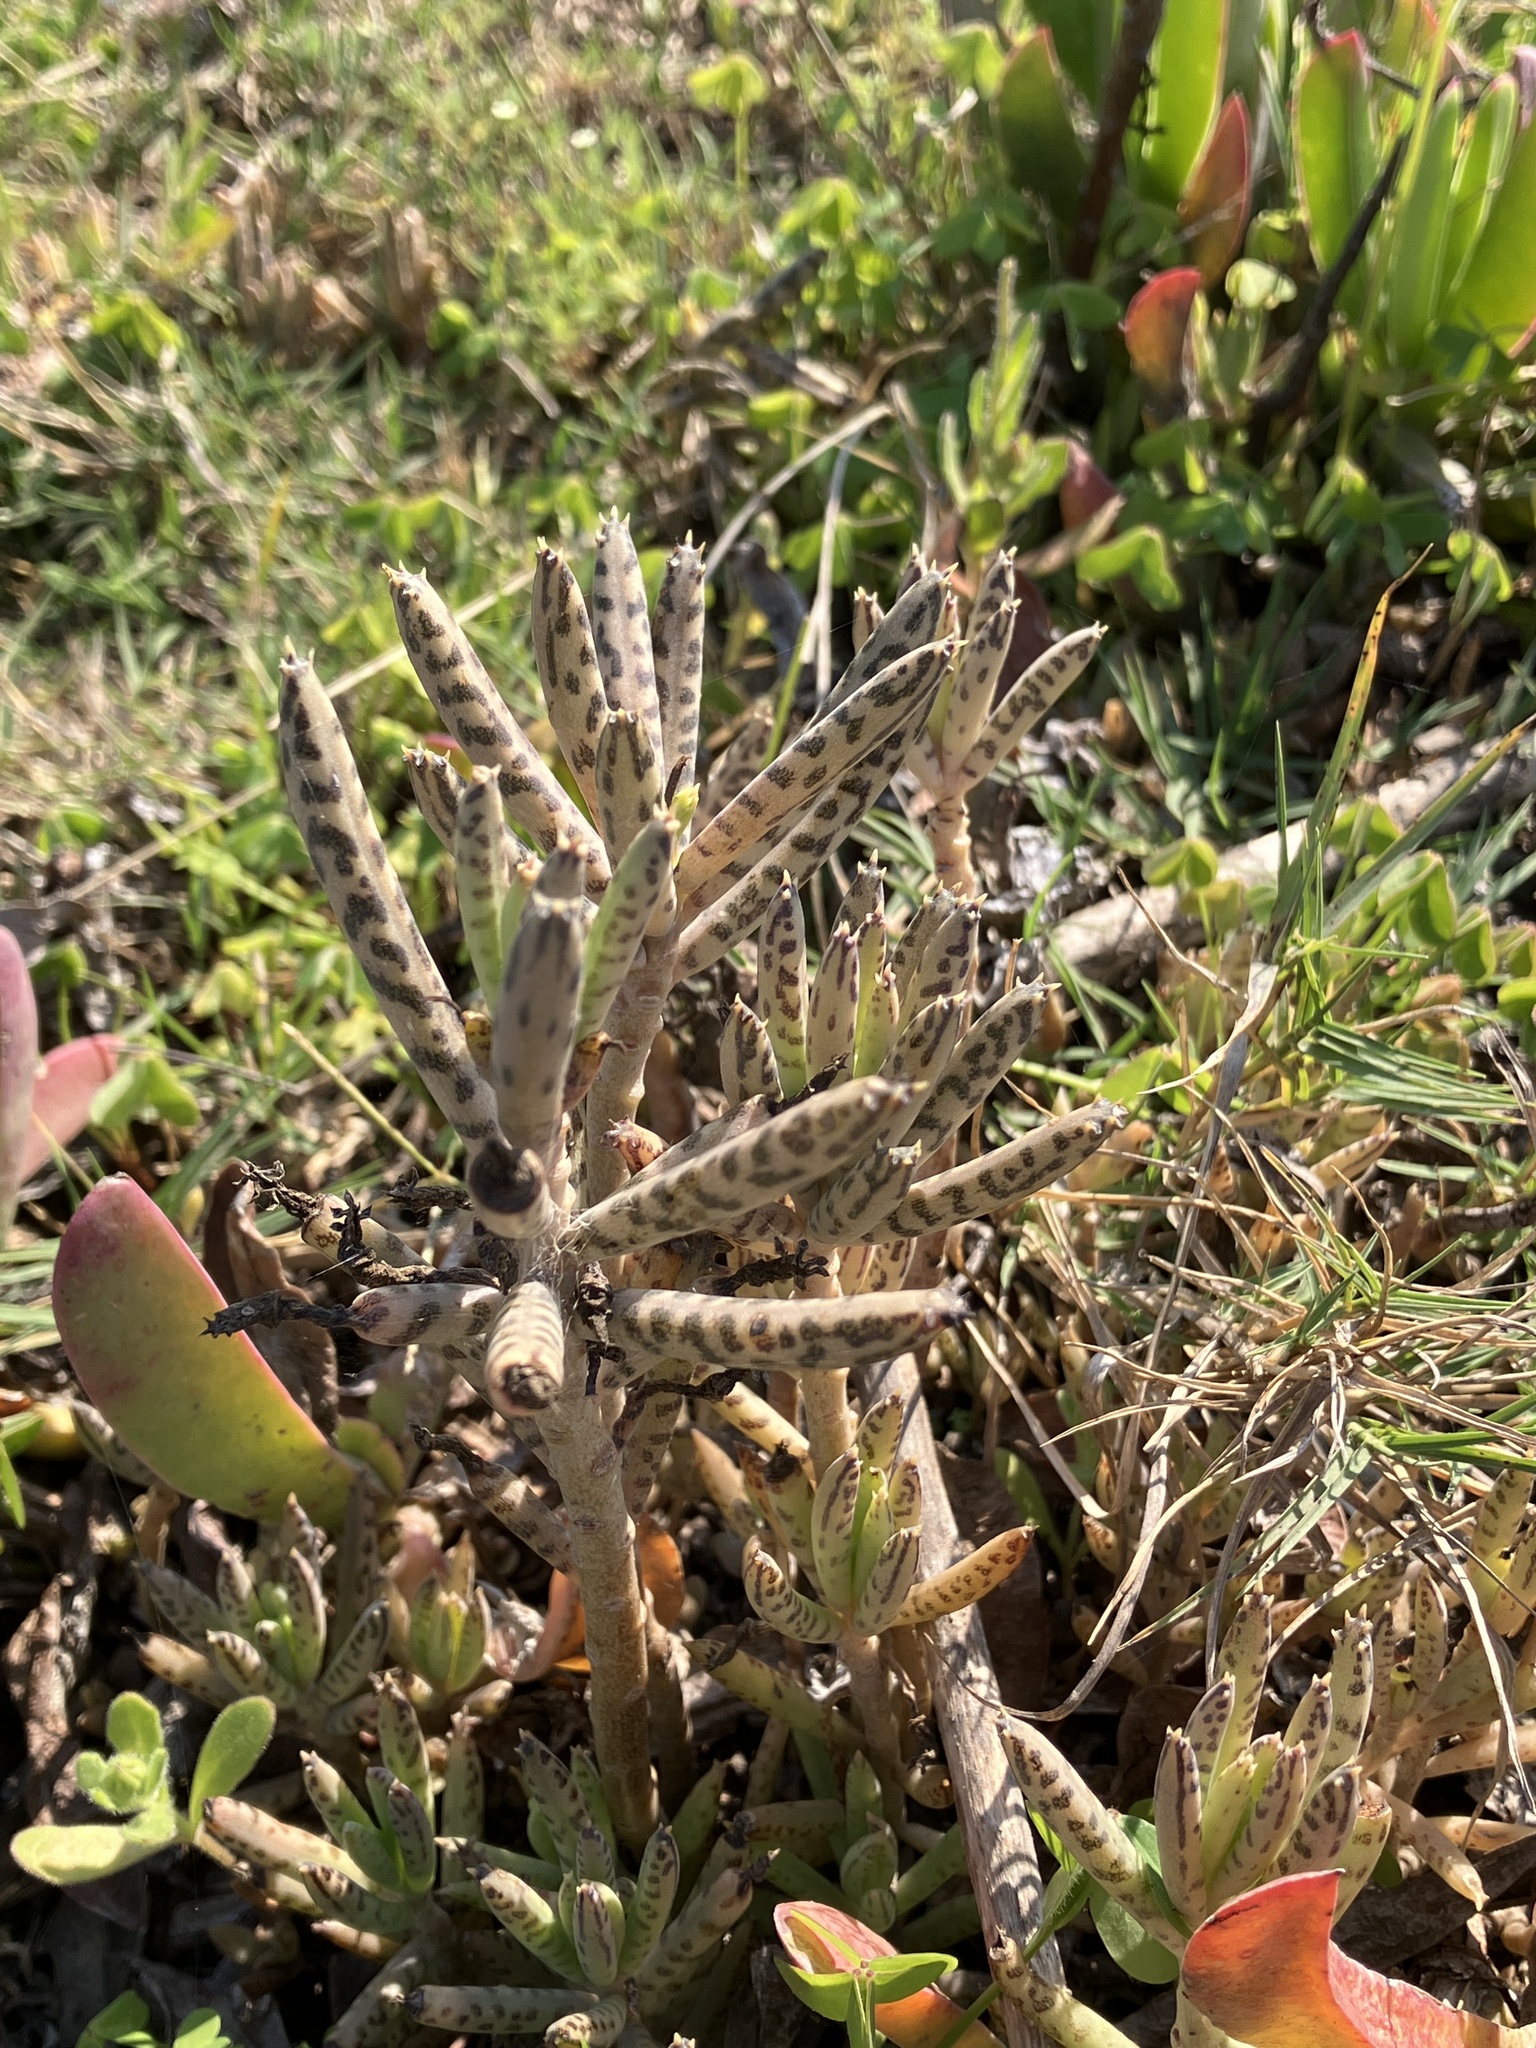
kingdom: Plantae
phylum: Tracheophyta
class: Magnoliopsida
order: Saxifragales
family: Crassulaceae
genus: Kalanchoe
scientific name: Kalanchoe delagoensis
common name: Chandelier plant
